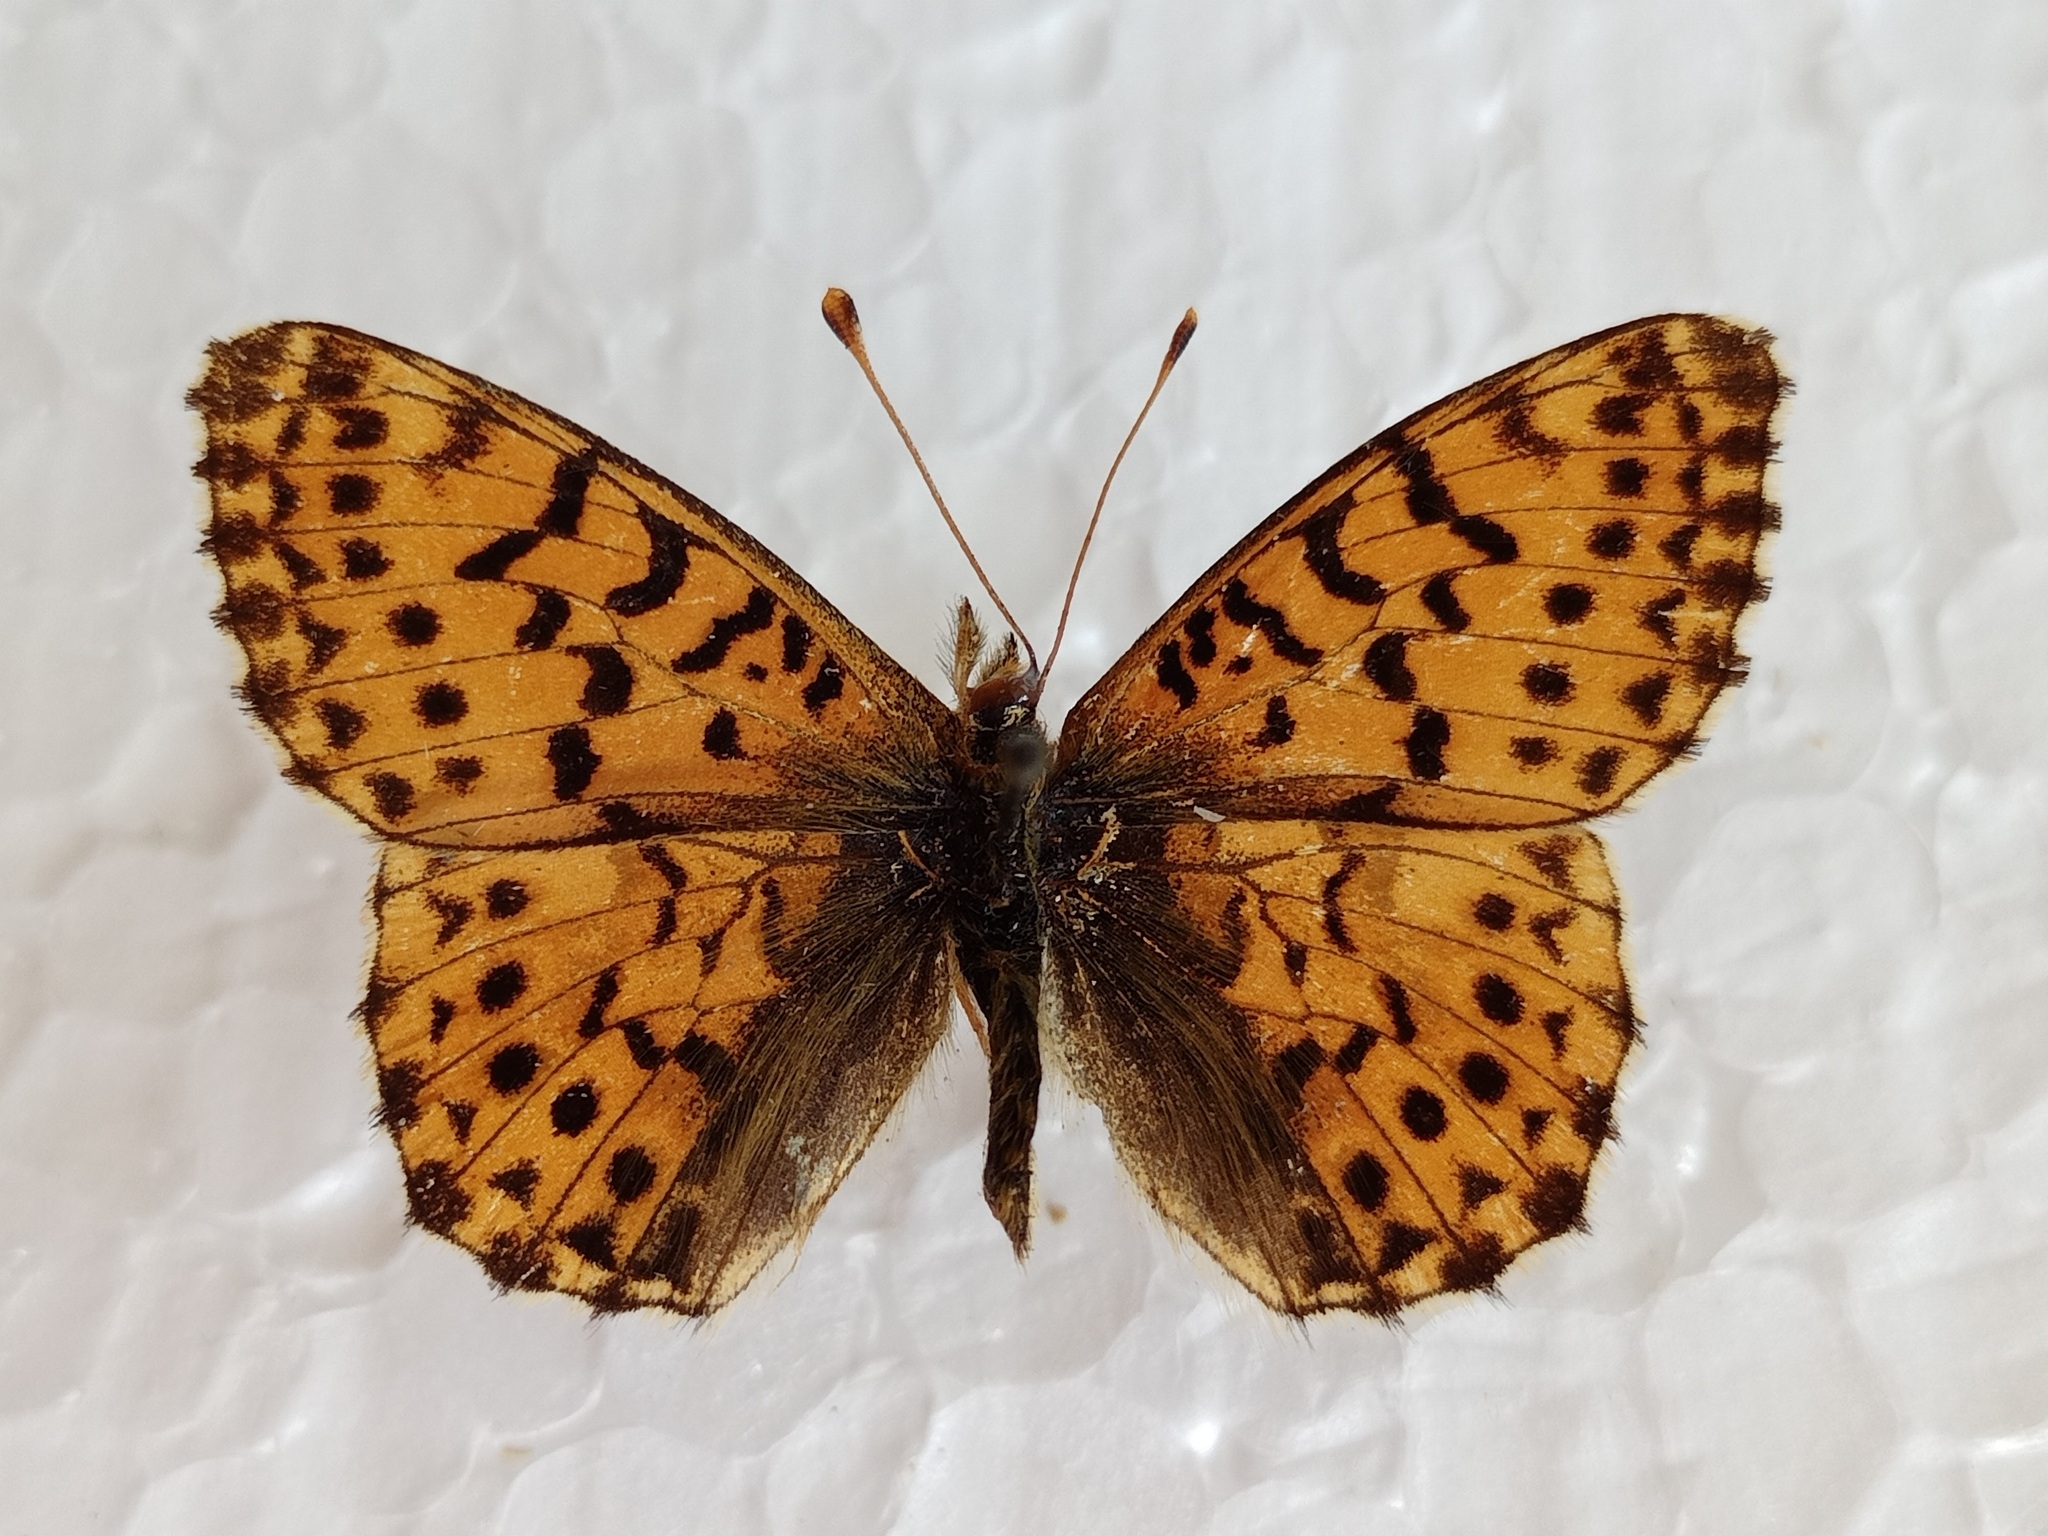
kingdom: Animalia
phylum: Arthropoda
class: Insecta
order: Lepidoptera
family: Nymphalidae
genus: Boloria
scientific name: Boloria graeca
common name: Balkan fritillary
